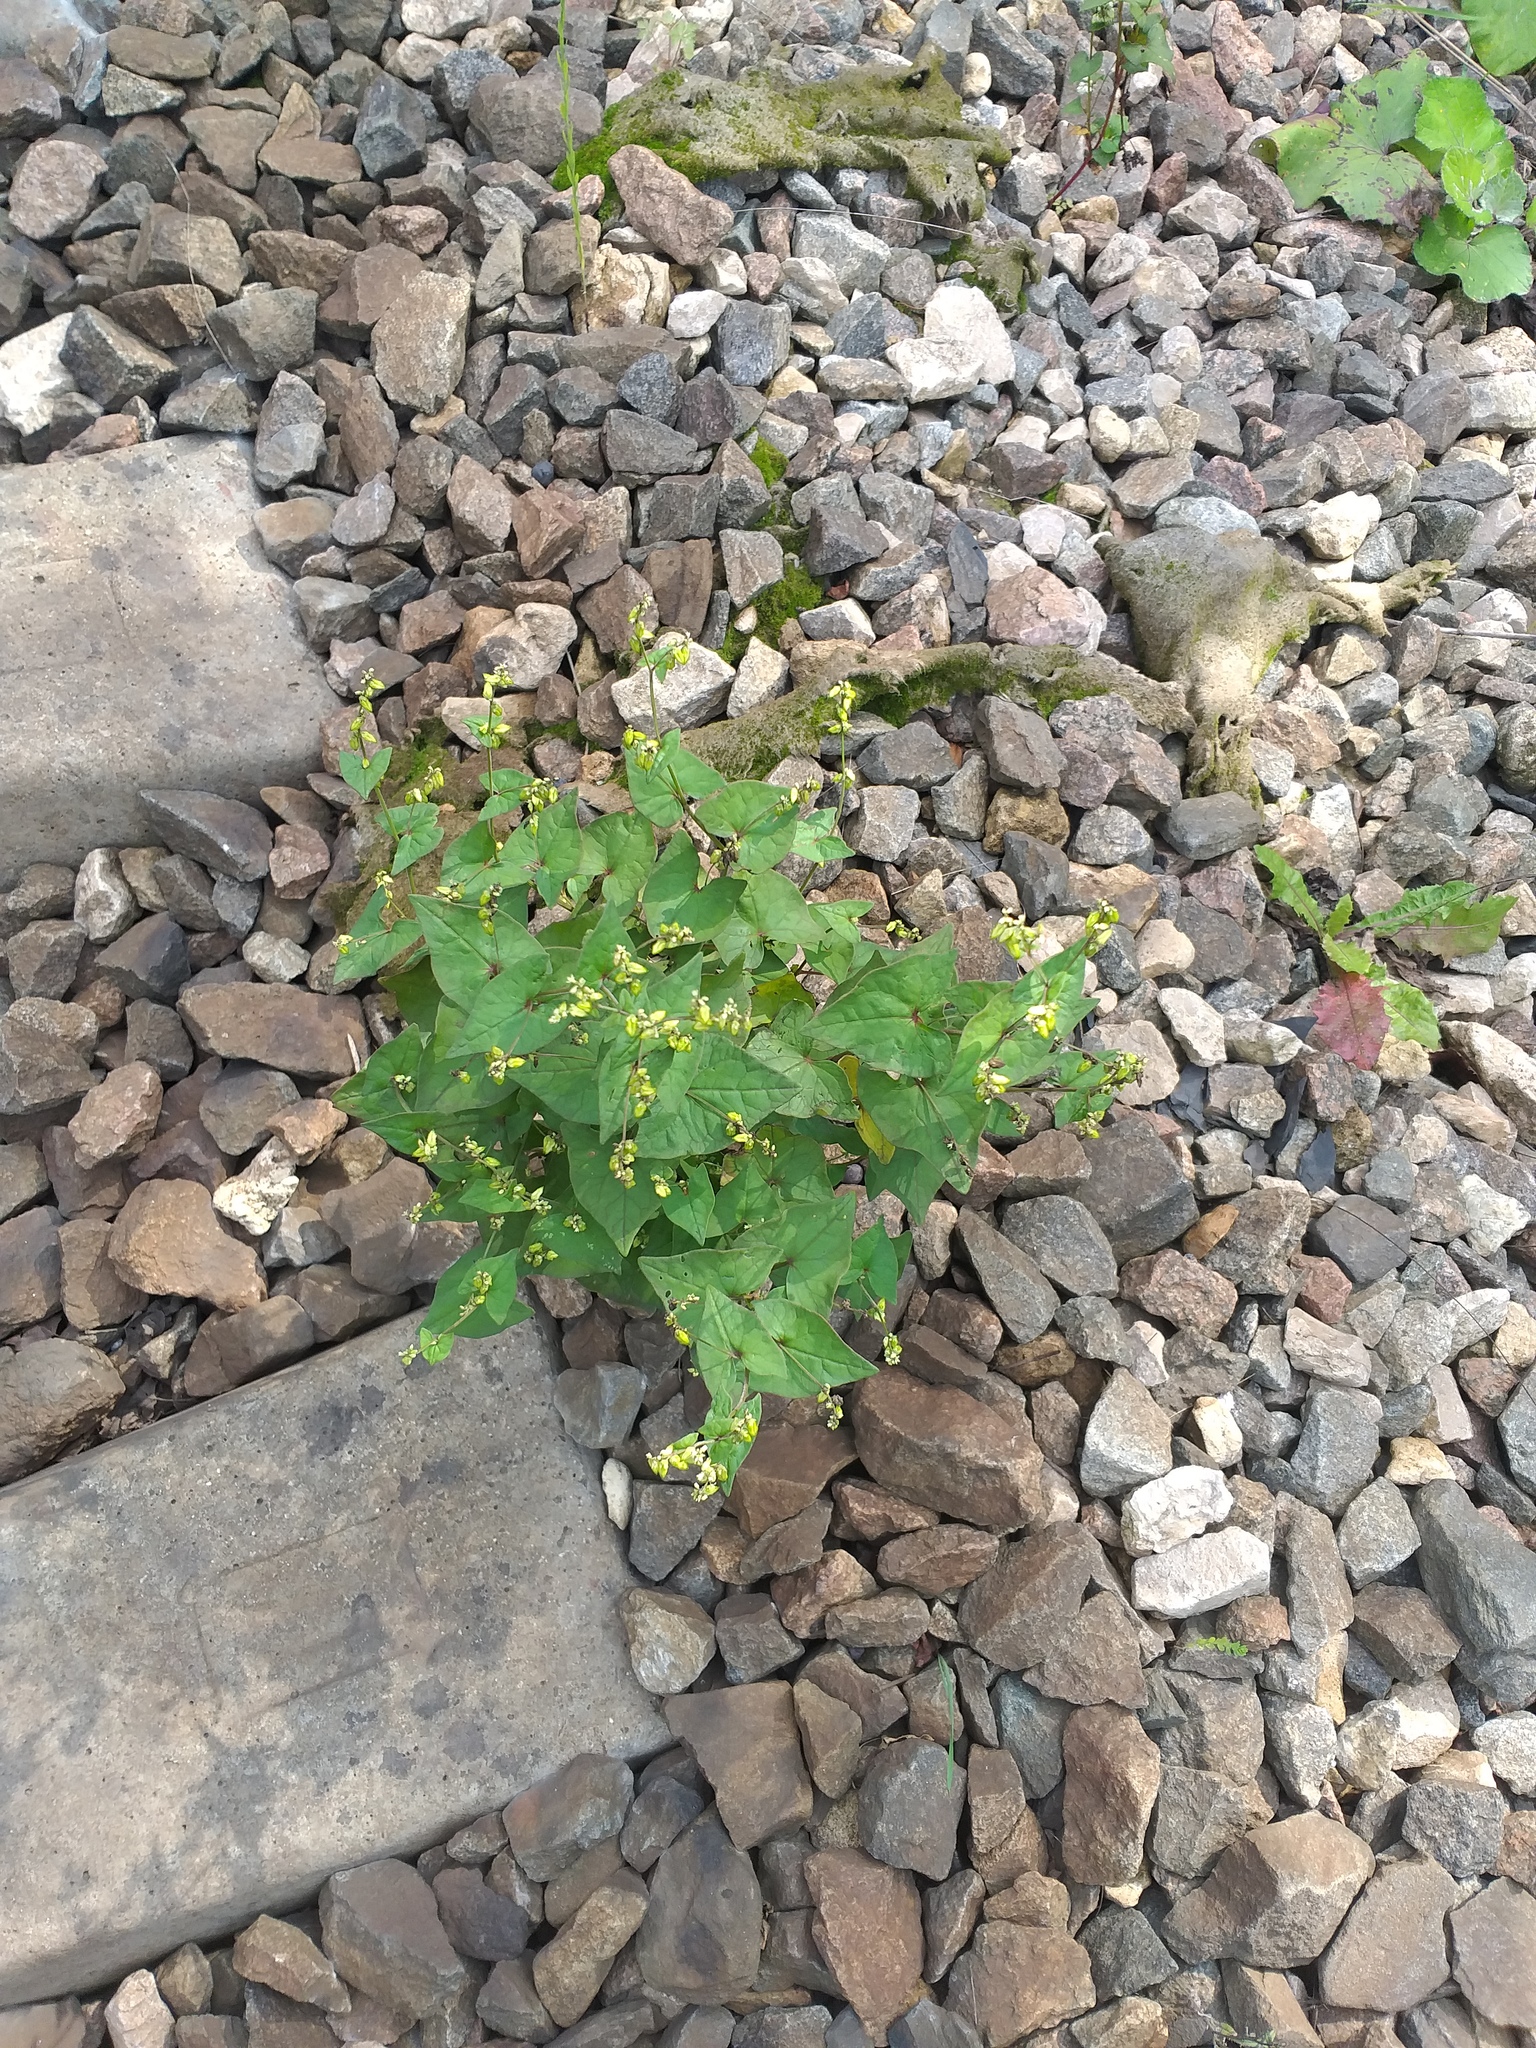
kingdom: Plantae
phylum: Tracheophyta
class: Magnoliopsida
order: Caryophyllales
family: Polygonaceae
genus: Fagopyrum
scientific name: Fagopyrum tataricum
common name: Green buckwheat
